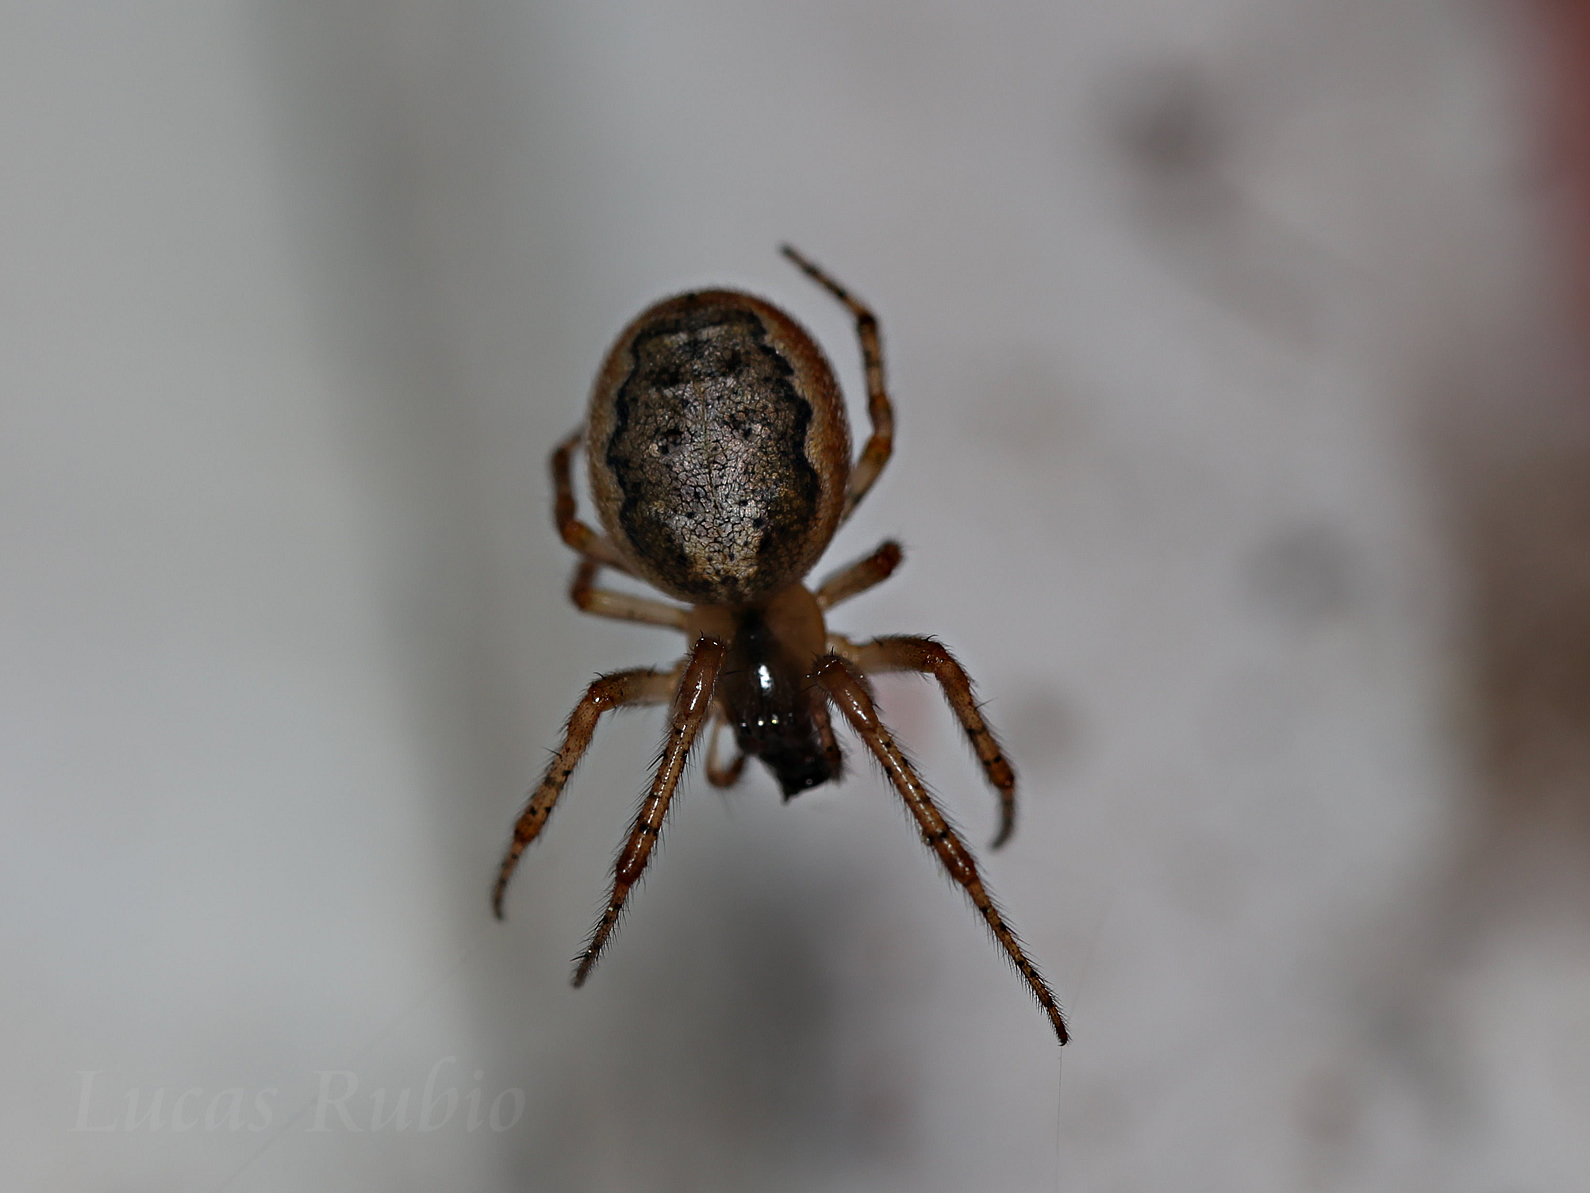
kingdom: Animalia
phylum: Arthropoda
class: Arachnida
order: Araneae
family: Araneidae
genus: Zygiella
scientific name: Zygiella x-notata
